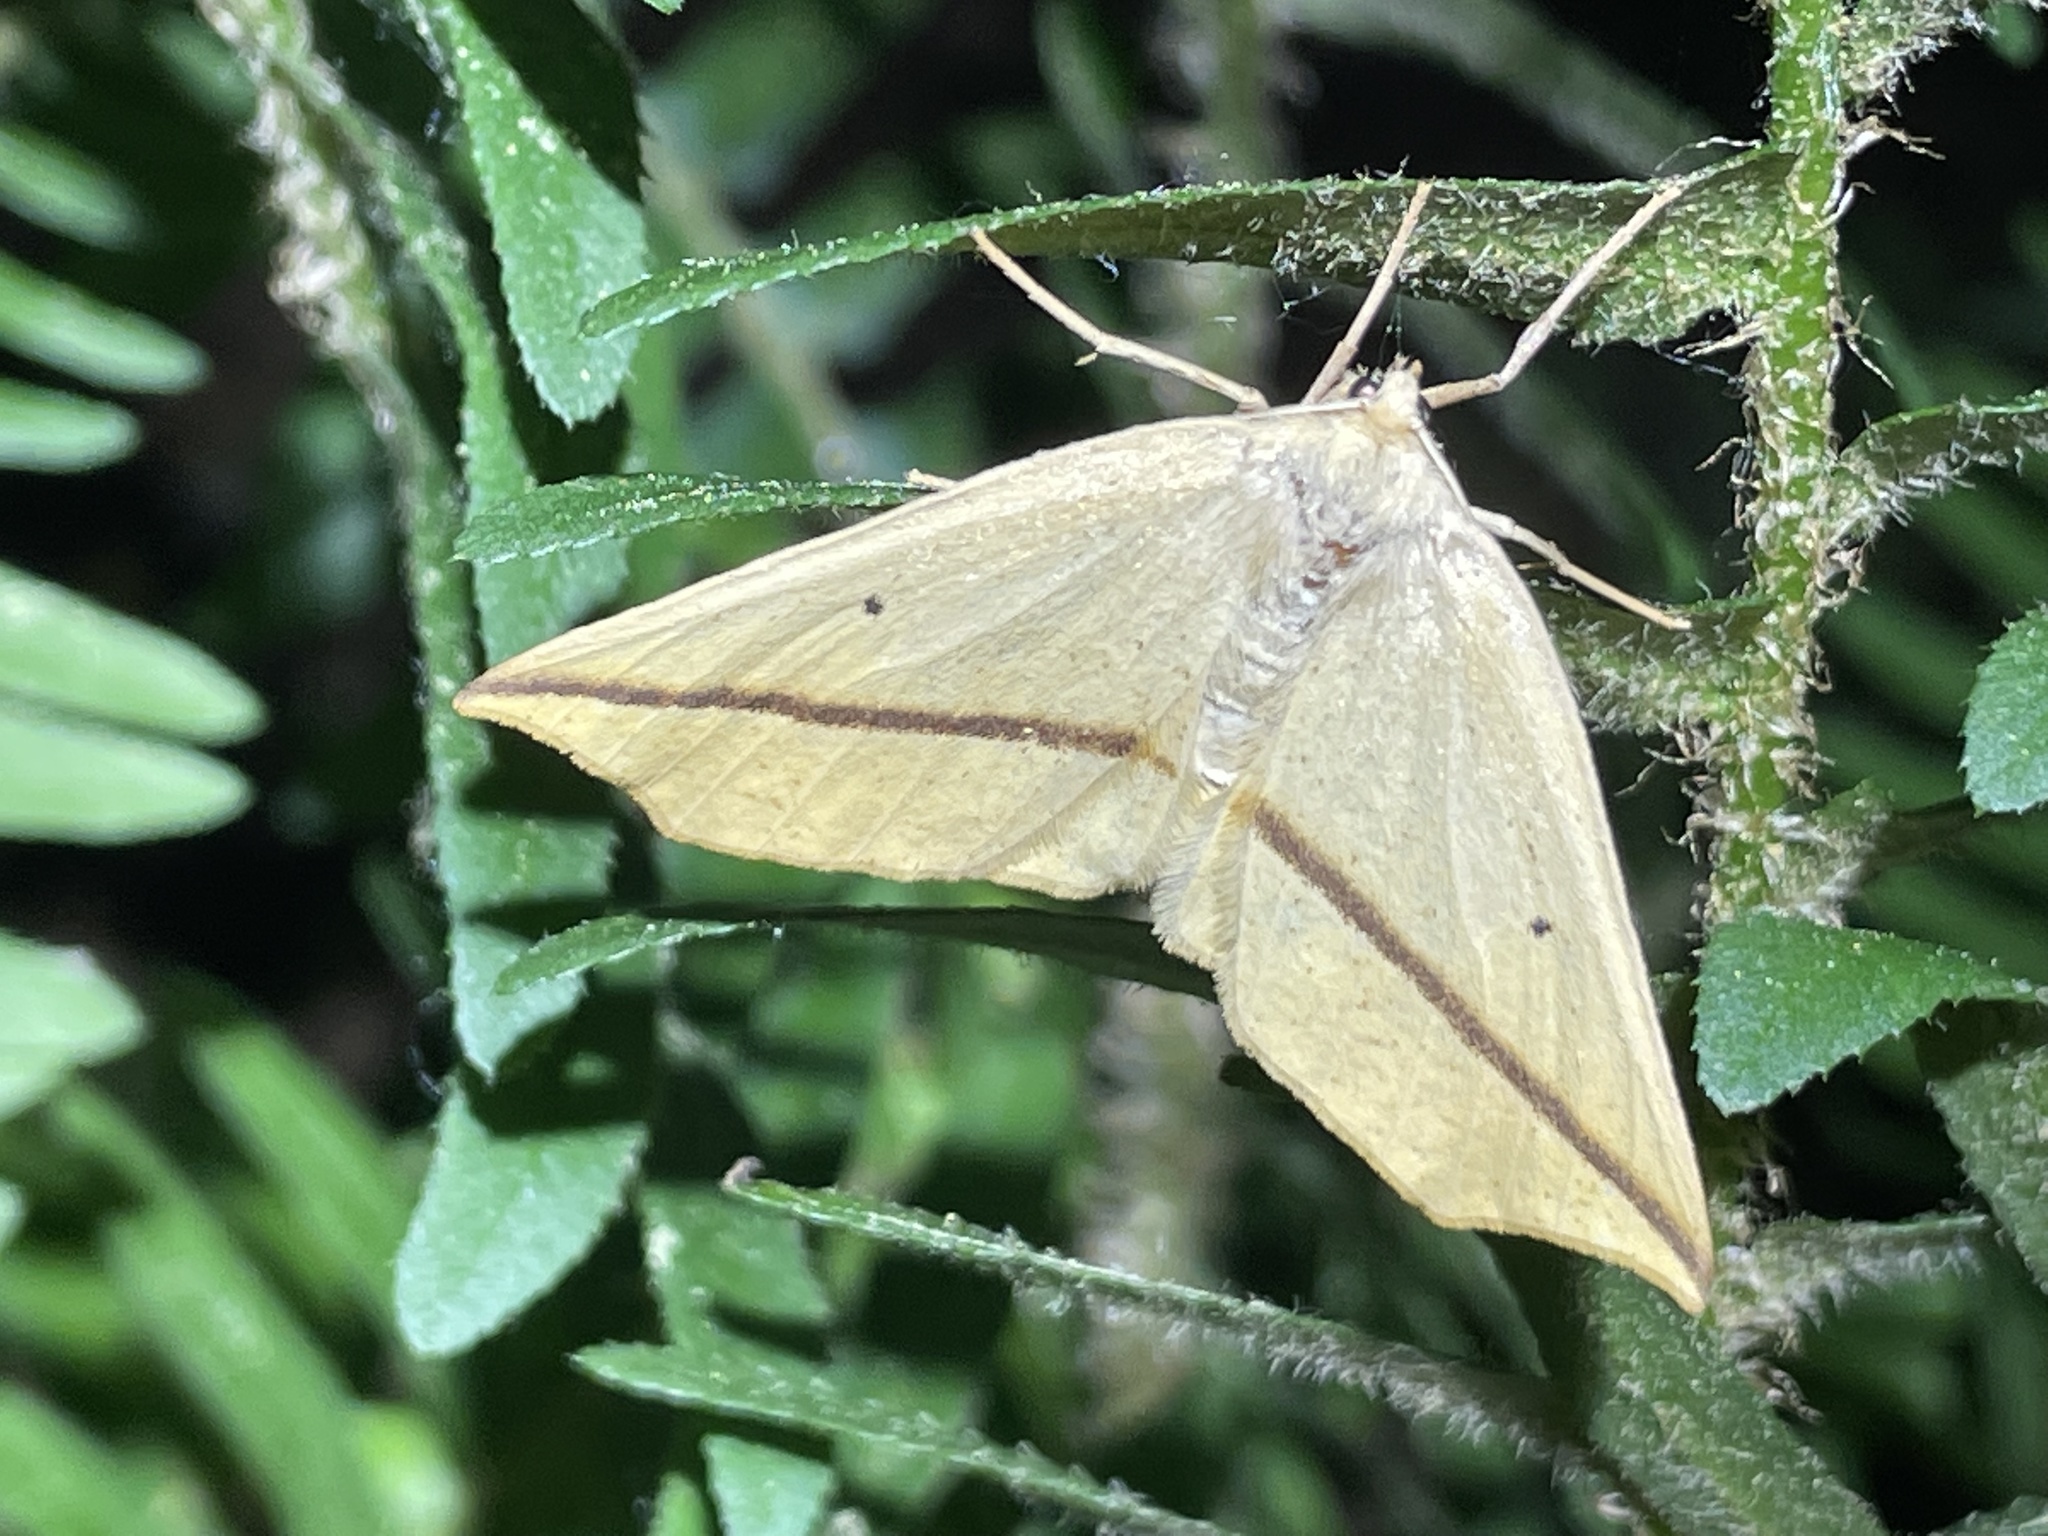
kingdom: Animalia
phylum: Arthropoda
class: Insecta
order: Lepidoptera
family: Geometridae
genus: Tetracis
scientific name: Tetracis crocallata
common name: Yellow slant-line
